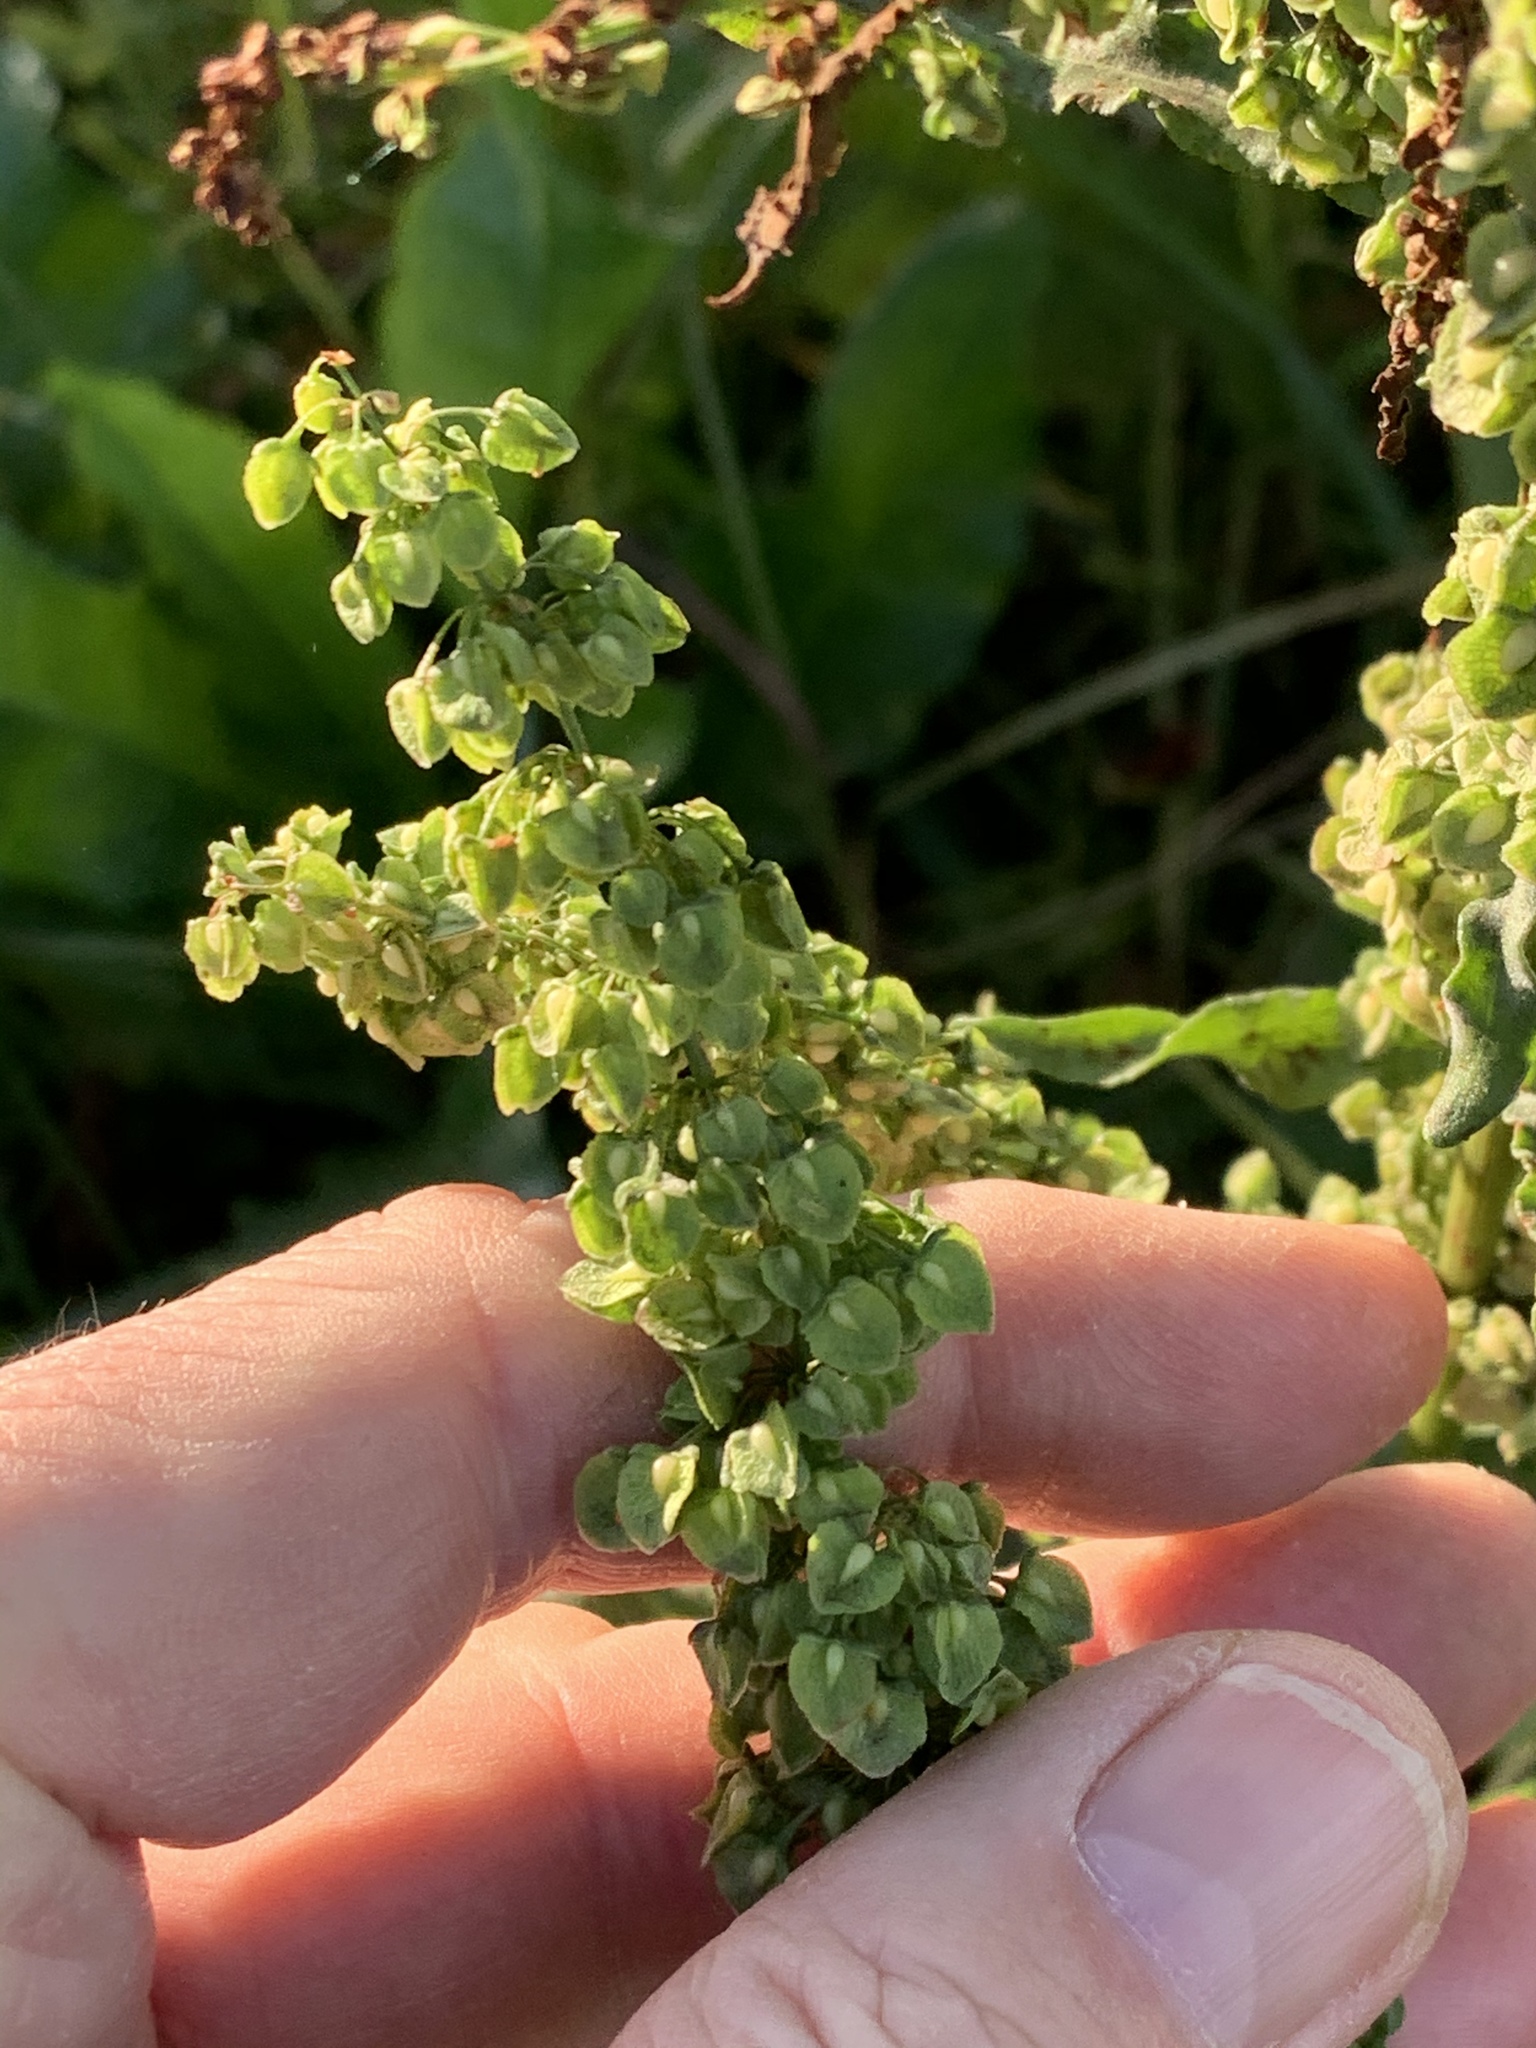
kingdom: Plantae
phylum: Tracheophyta
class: Magnoliopsida
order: Caryophyllales
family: Polygonaceae
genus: Rumex
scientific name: Rumex crispus
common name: Curled dock
